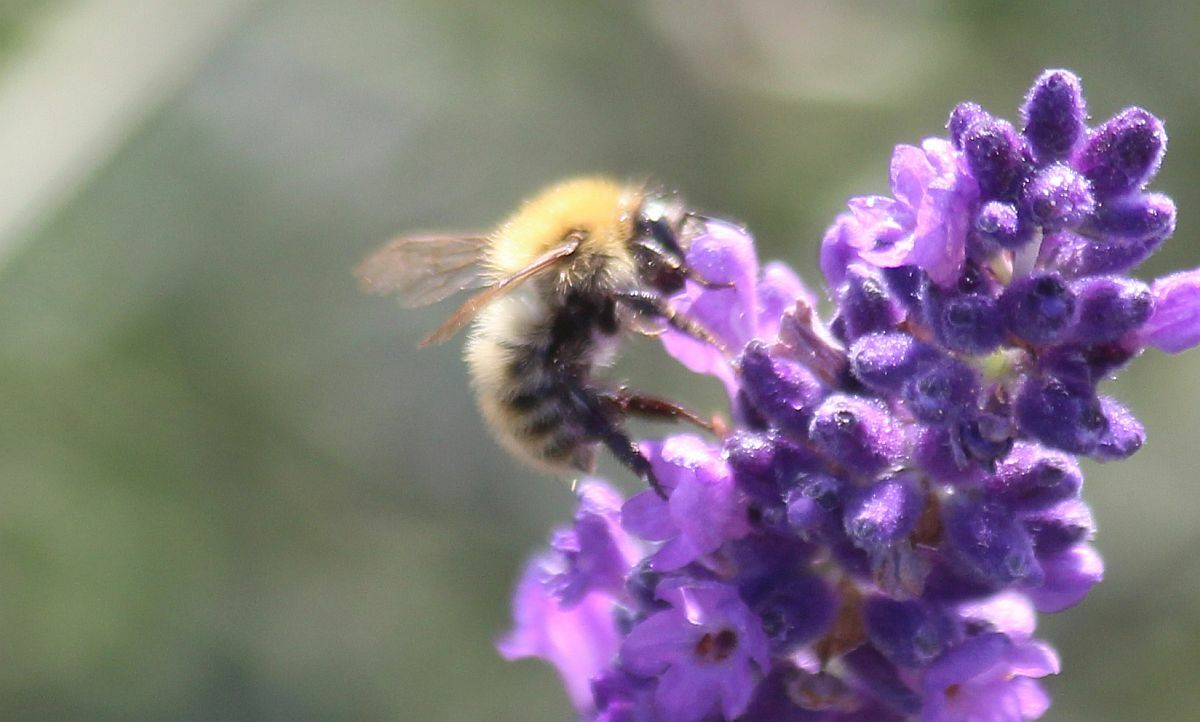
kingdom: Animalia
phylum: Arthropoda
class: Insecta
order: Hymenoptera
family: Apidae
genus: Bombus
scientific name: Bombus pascuorum
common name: Common carder bee
